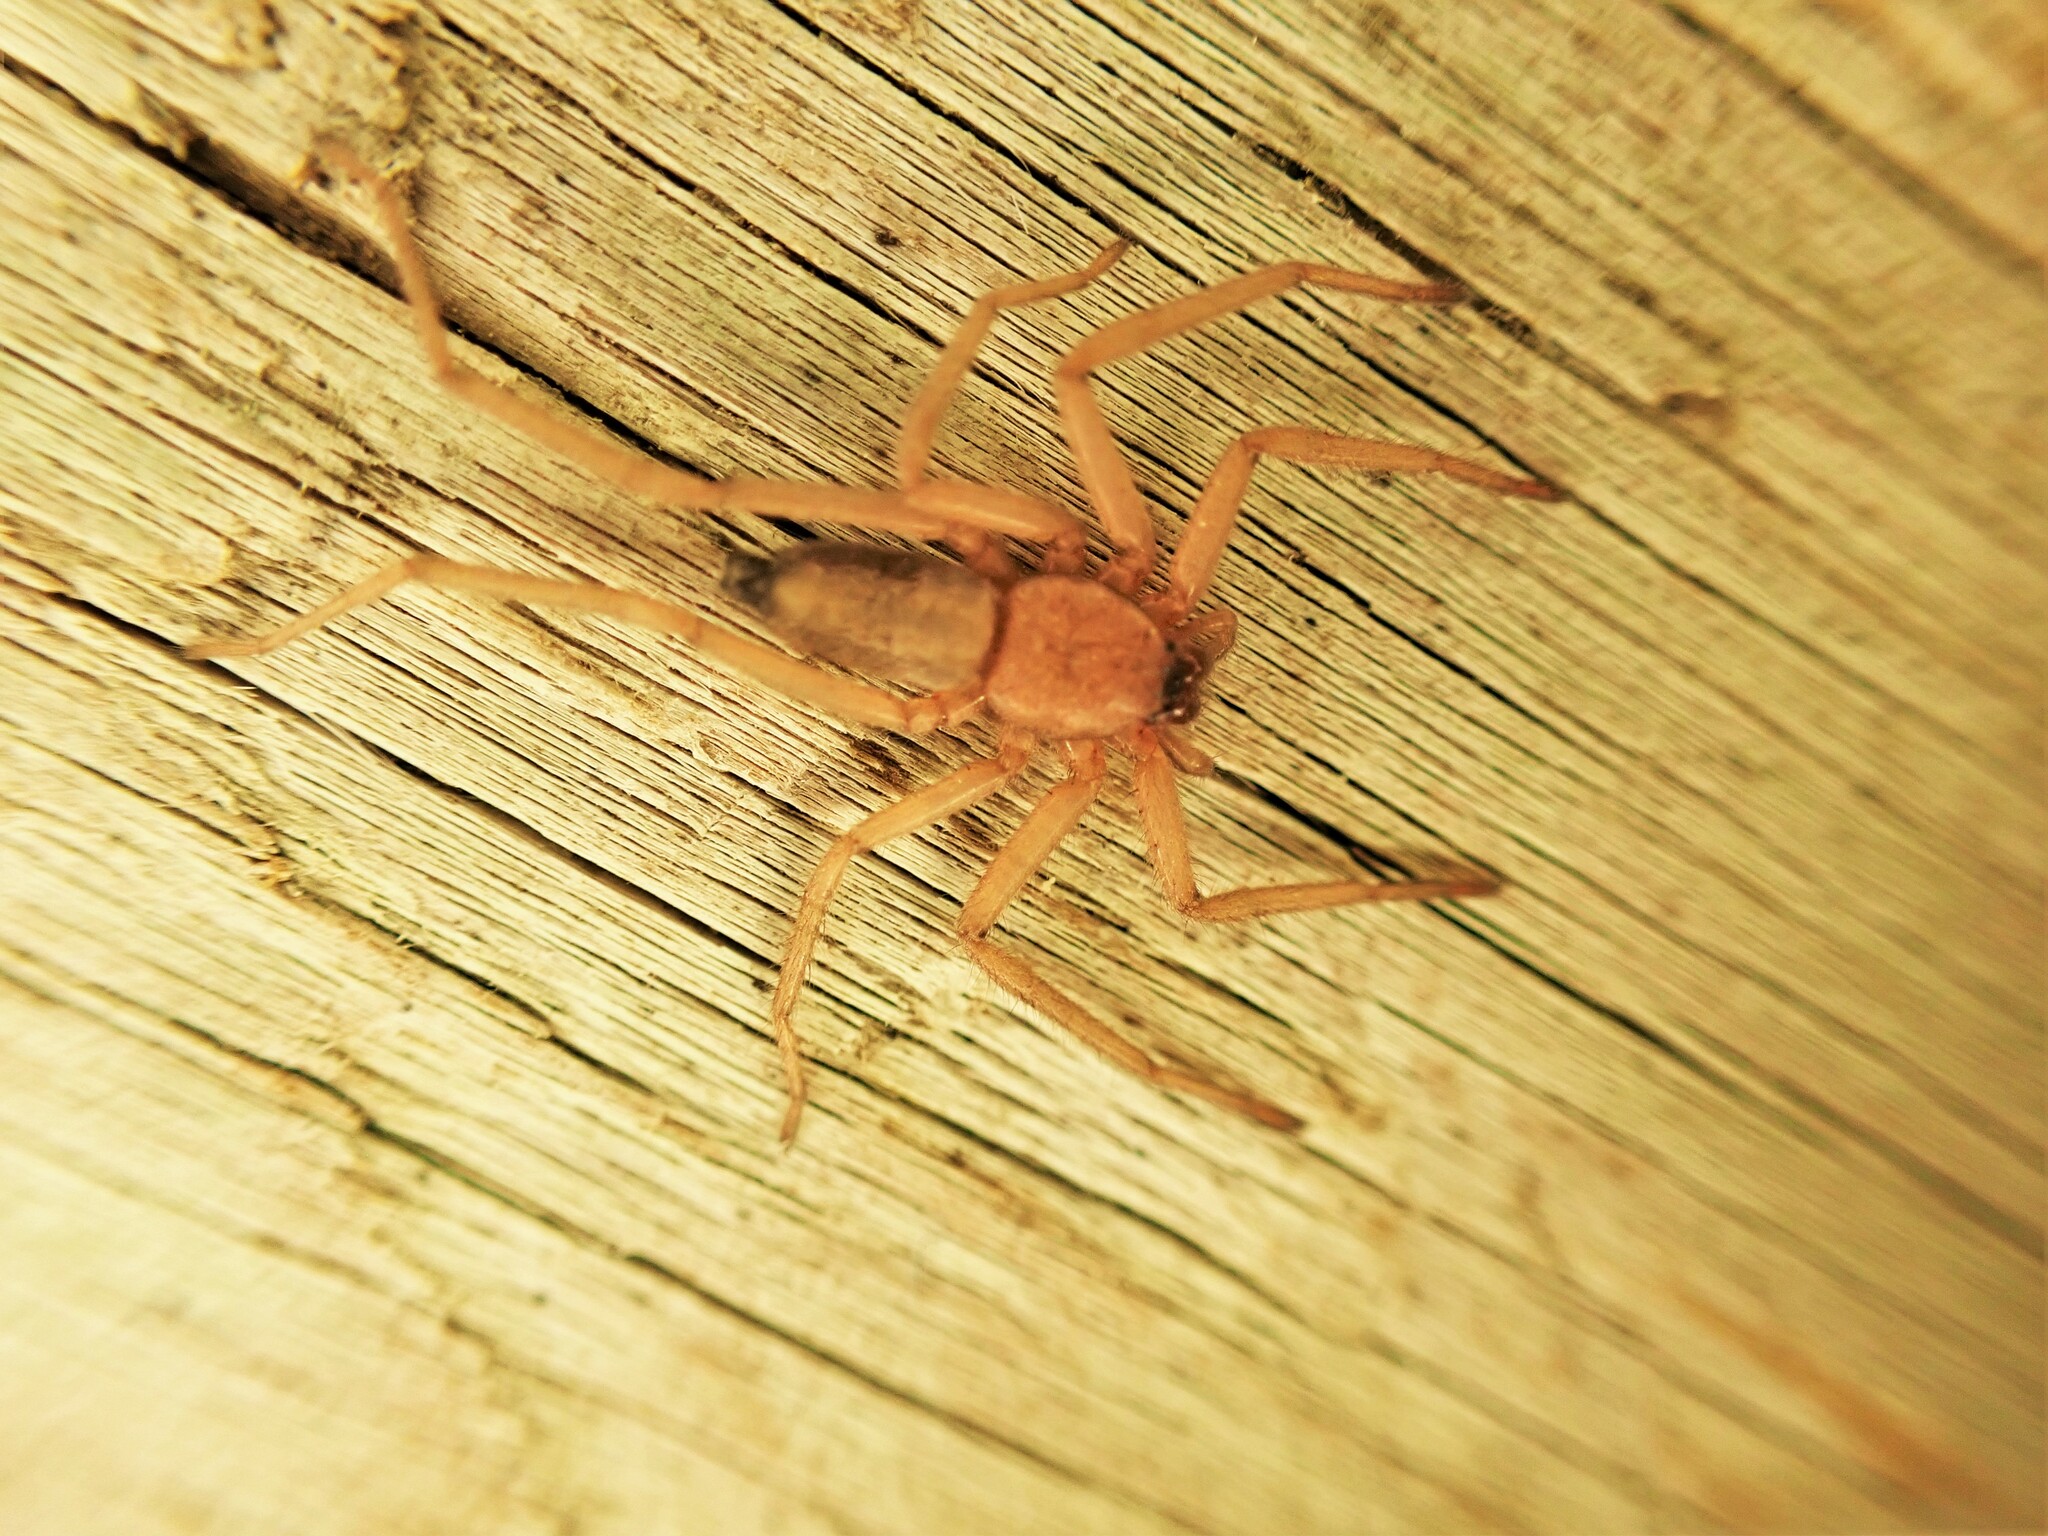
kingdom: Animalia
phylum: Arthropoda
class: Arachnida
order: Araneae
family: Trochanteriidae
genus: Hemicloea
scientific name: Hemicloea rogenhoferi
